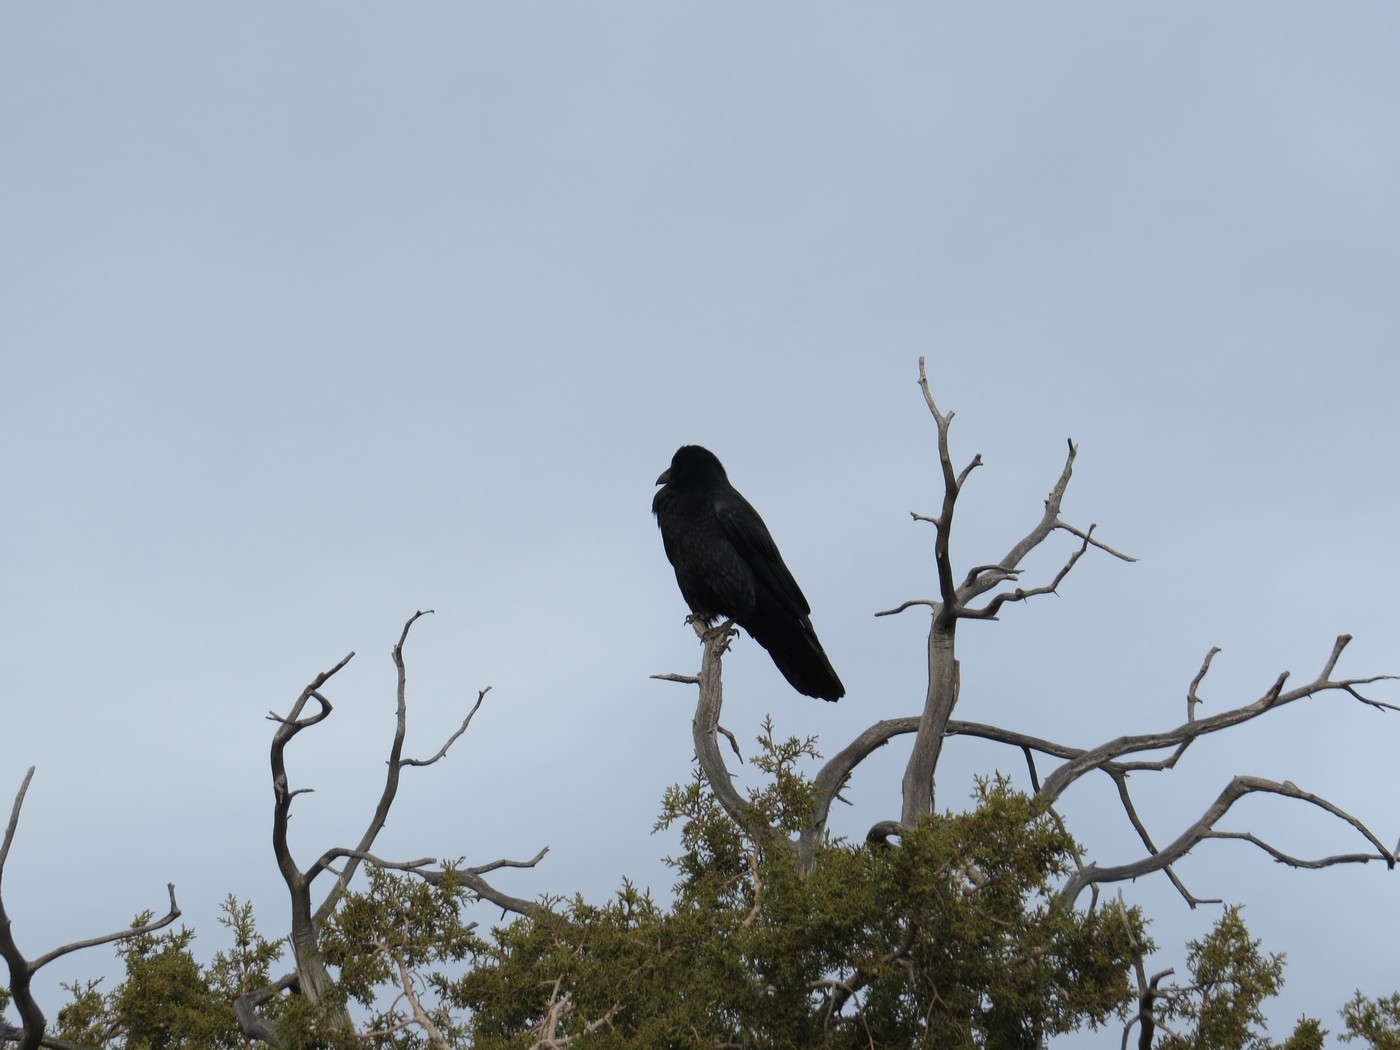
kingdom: Animalia
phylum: Chordata
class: Aves
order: Passeriformes
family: Corvidae
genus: Corvus
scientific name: Corvus corax
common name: Common raven
